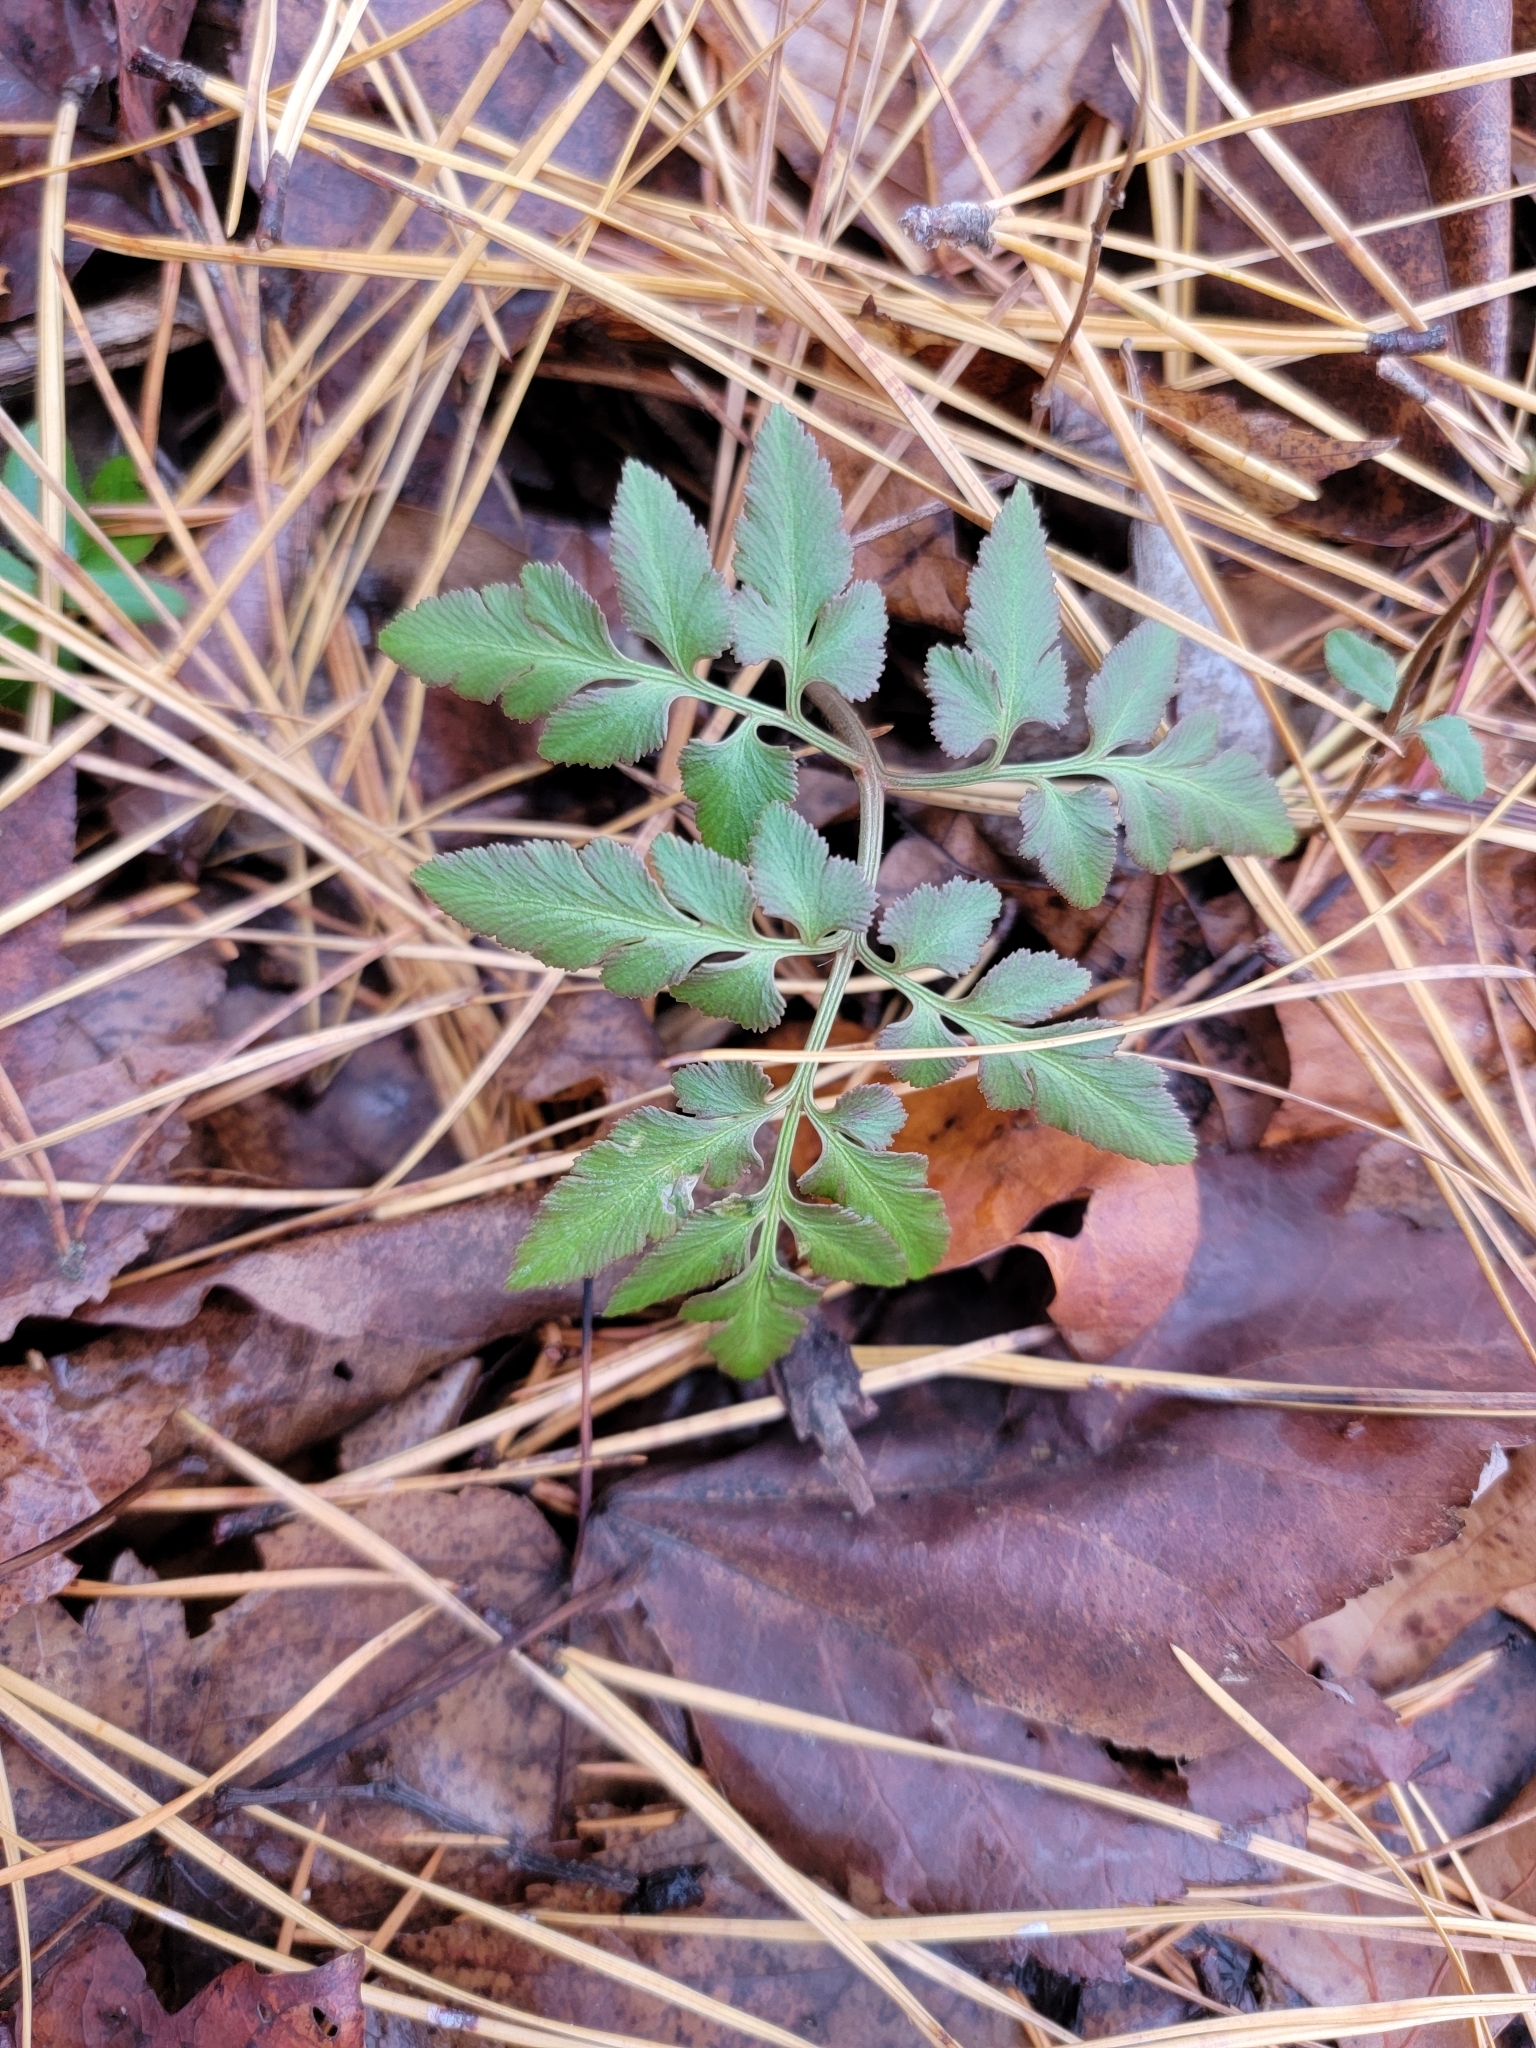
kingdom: Plantae
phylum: Tracheophyta
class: Polypodiopsida
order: Ophioglossales
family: Ophioglossaceae
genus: Sceptridium
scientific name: Sceptridium dissectum
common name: Cut-leaved grapefern
